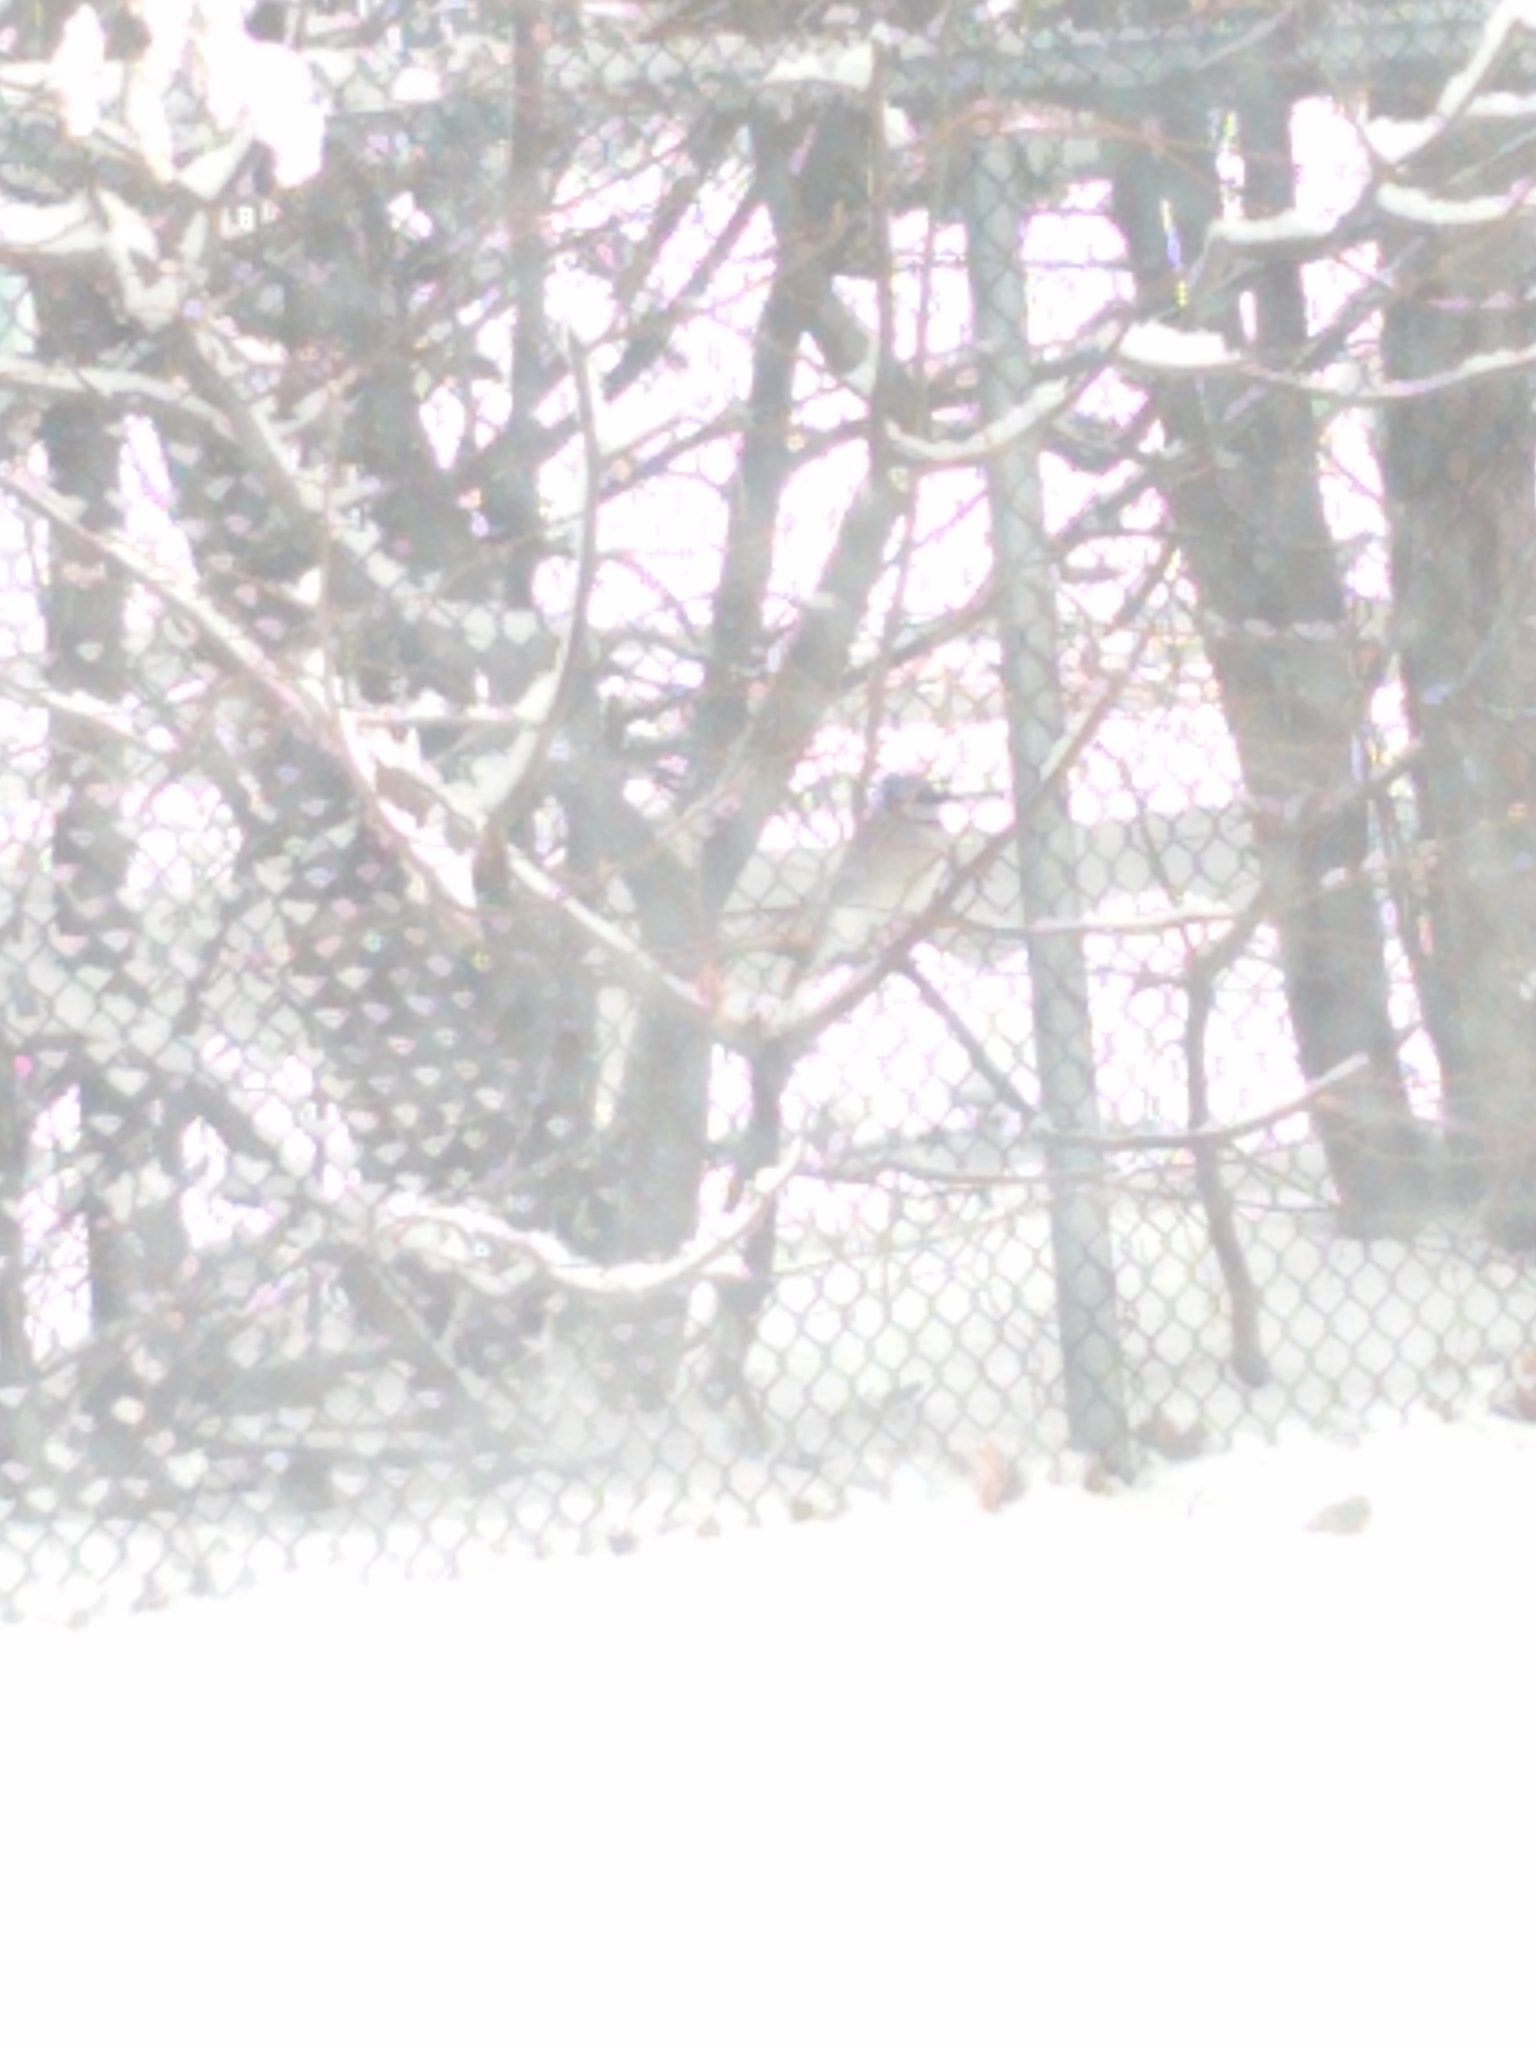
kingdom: Animalia
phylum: Chordata
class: Aves
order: Passeriformes
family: Corvidae
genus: Cyanocitta
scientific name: Cyanocitta cristata
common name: Blue jay
